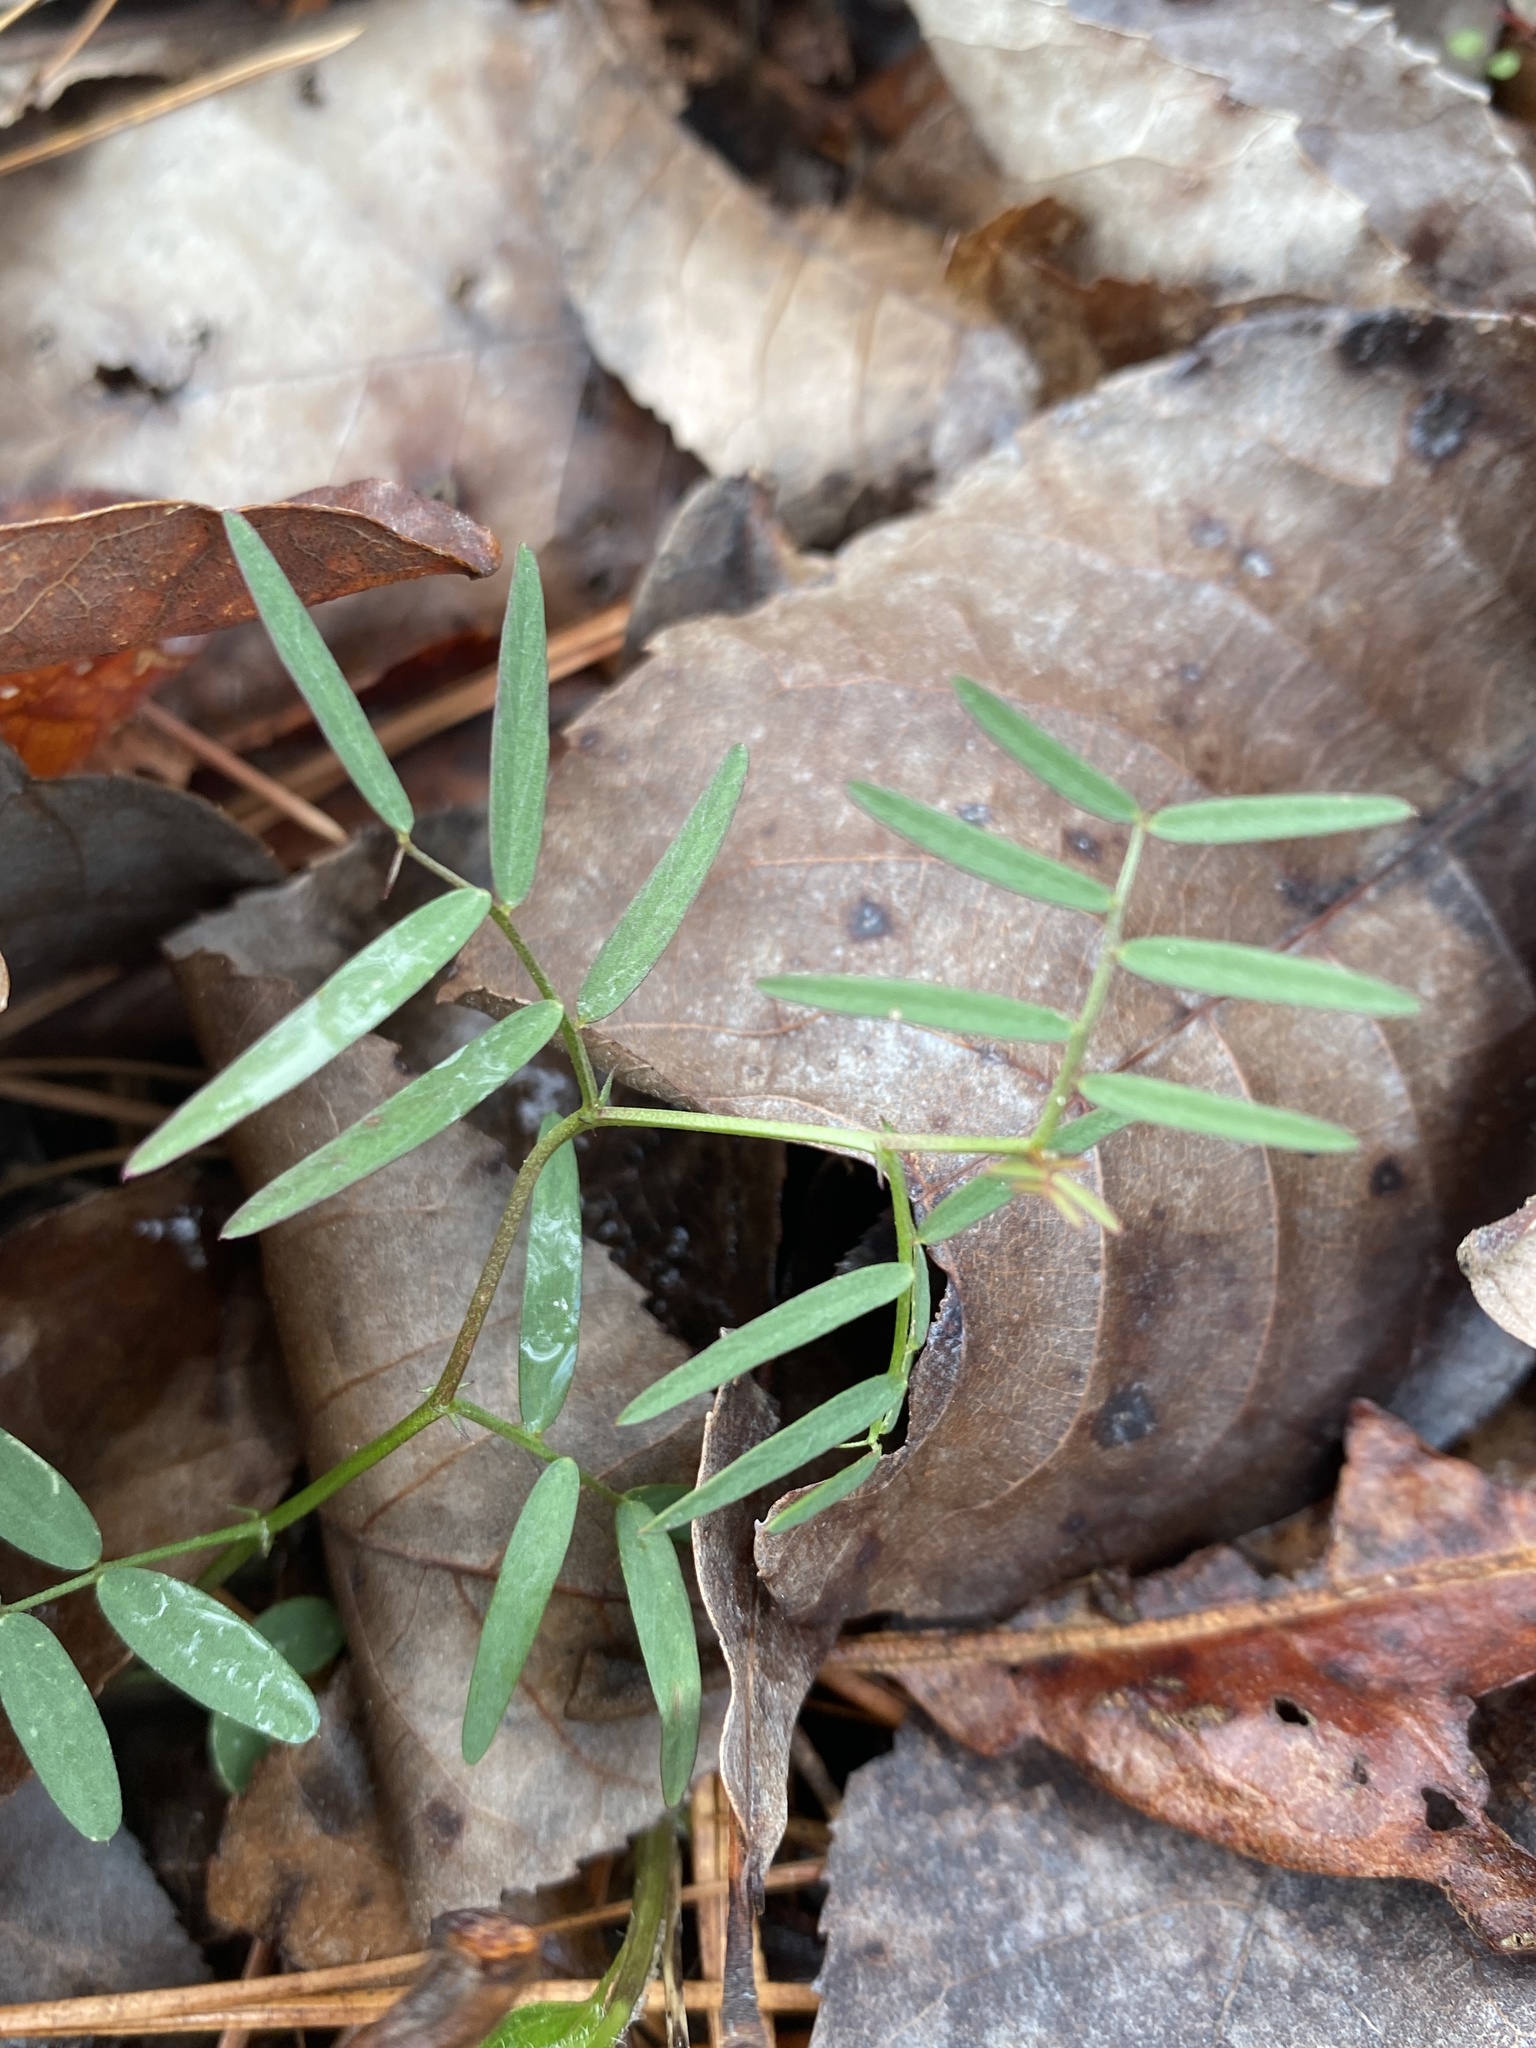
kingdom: Plantae
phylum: Tracheophyta
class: Magnoliopsida
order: Fabales
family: Fabaceae
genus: Vicia
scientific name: Vicia minutiflora
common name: Pygmy-flower vetch
